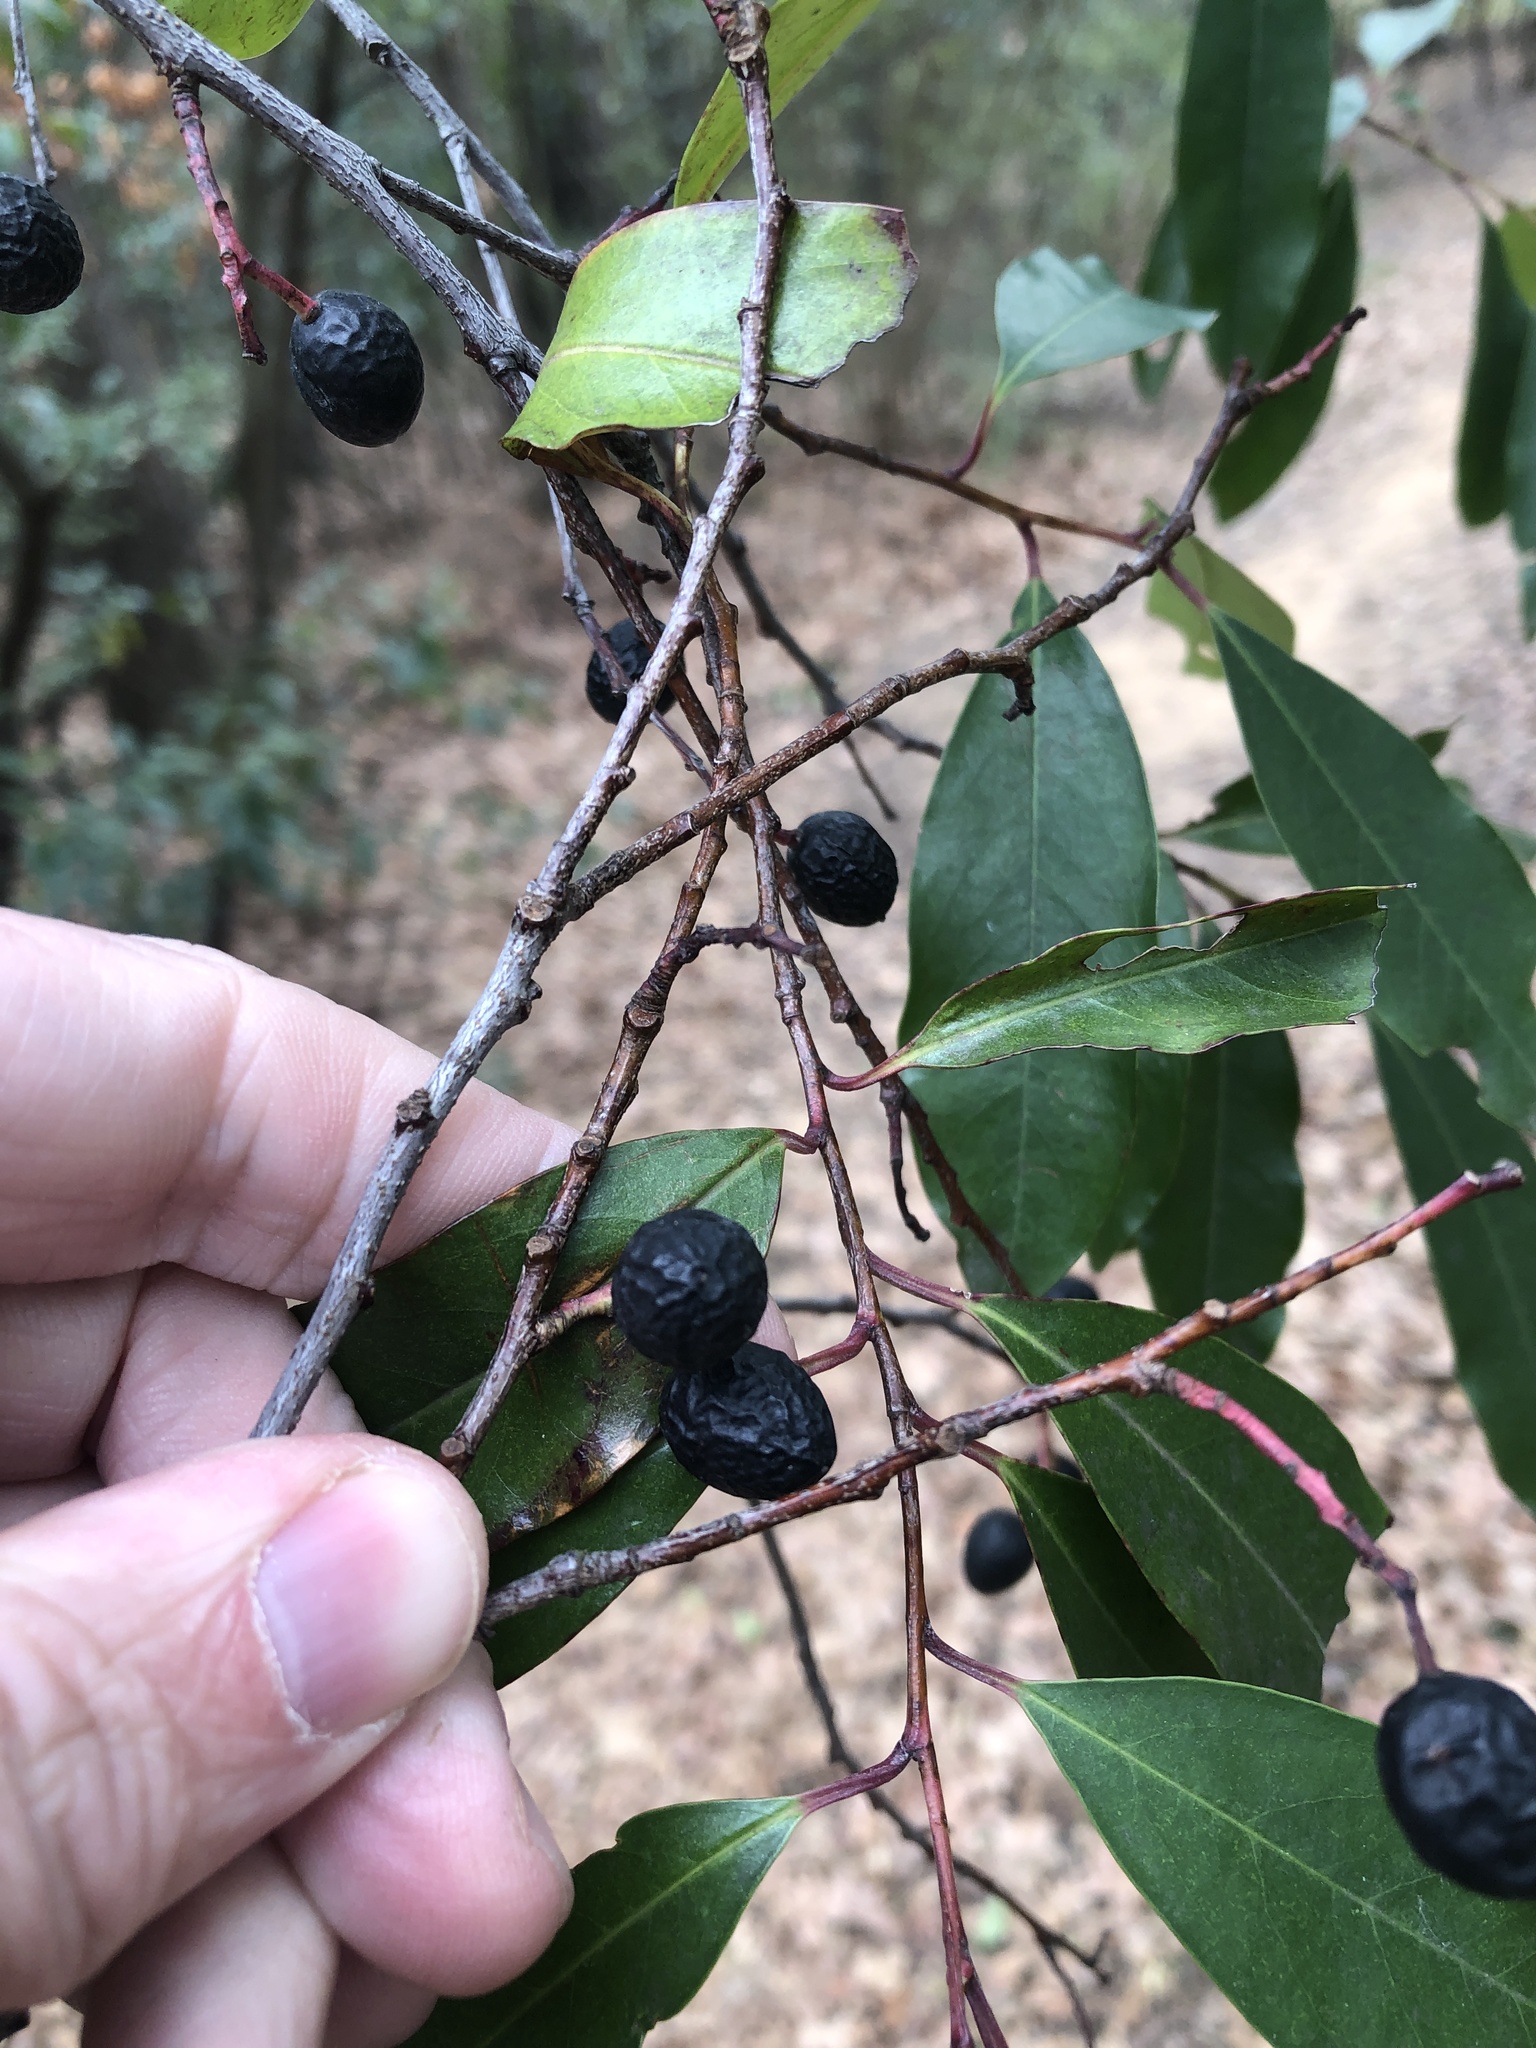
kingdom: Plantae
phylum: Tracheophyta
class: Magnoliopsida
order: Rosales
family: Rosaceae
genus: Prunus
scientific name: Prunus caroliniana
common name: Carolina laurel cherry
